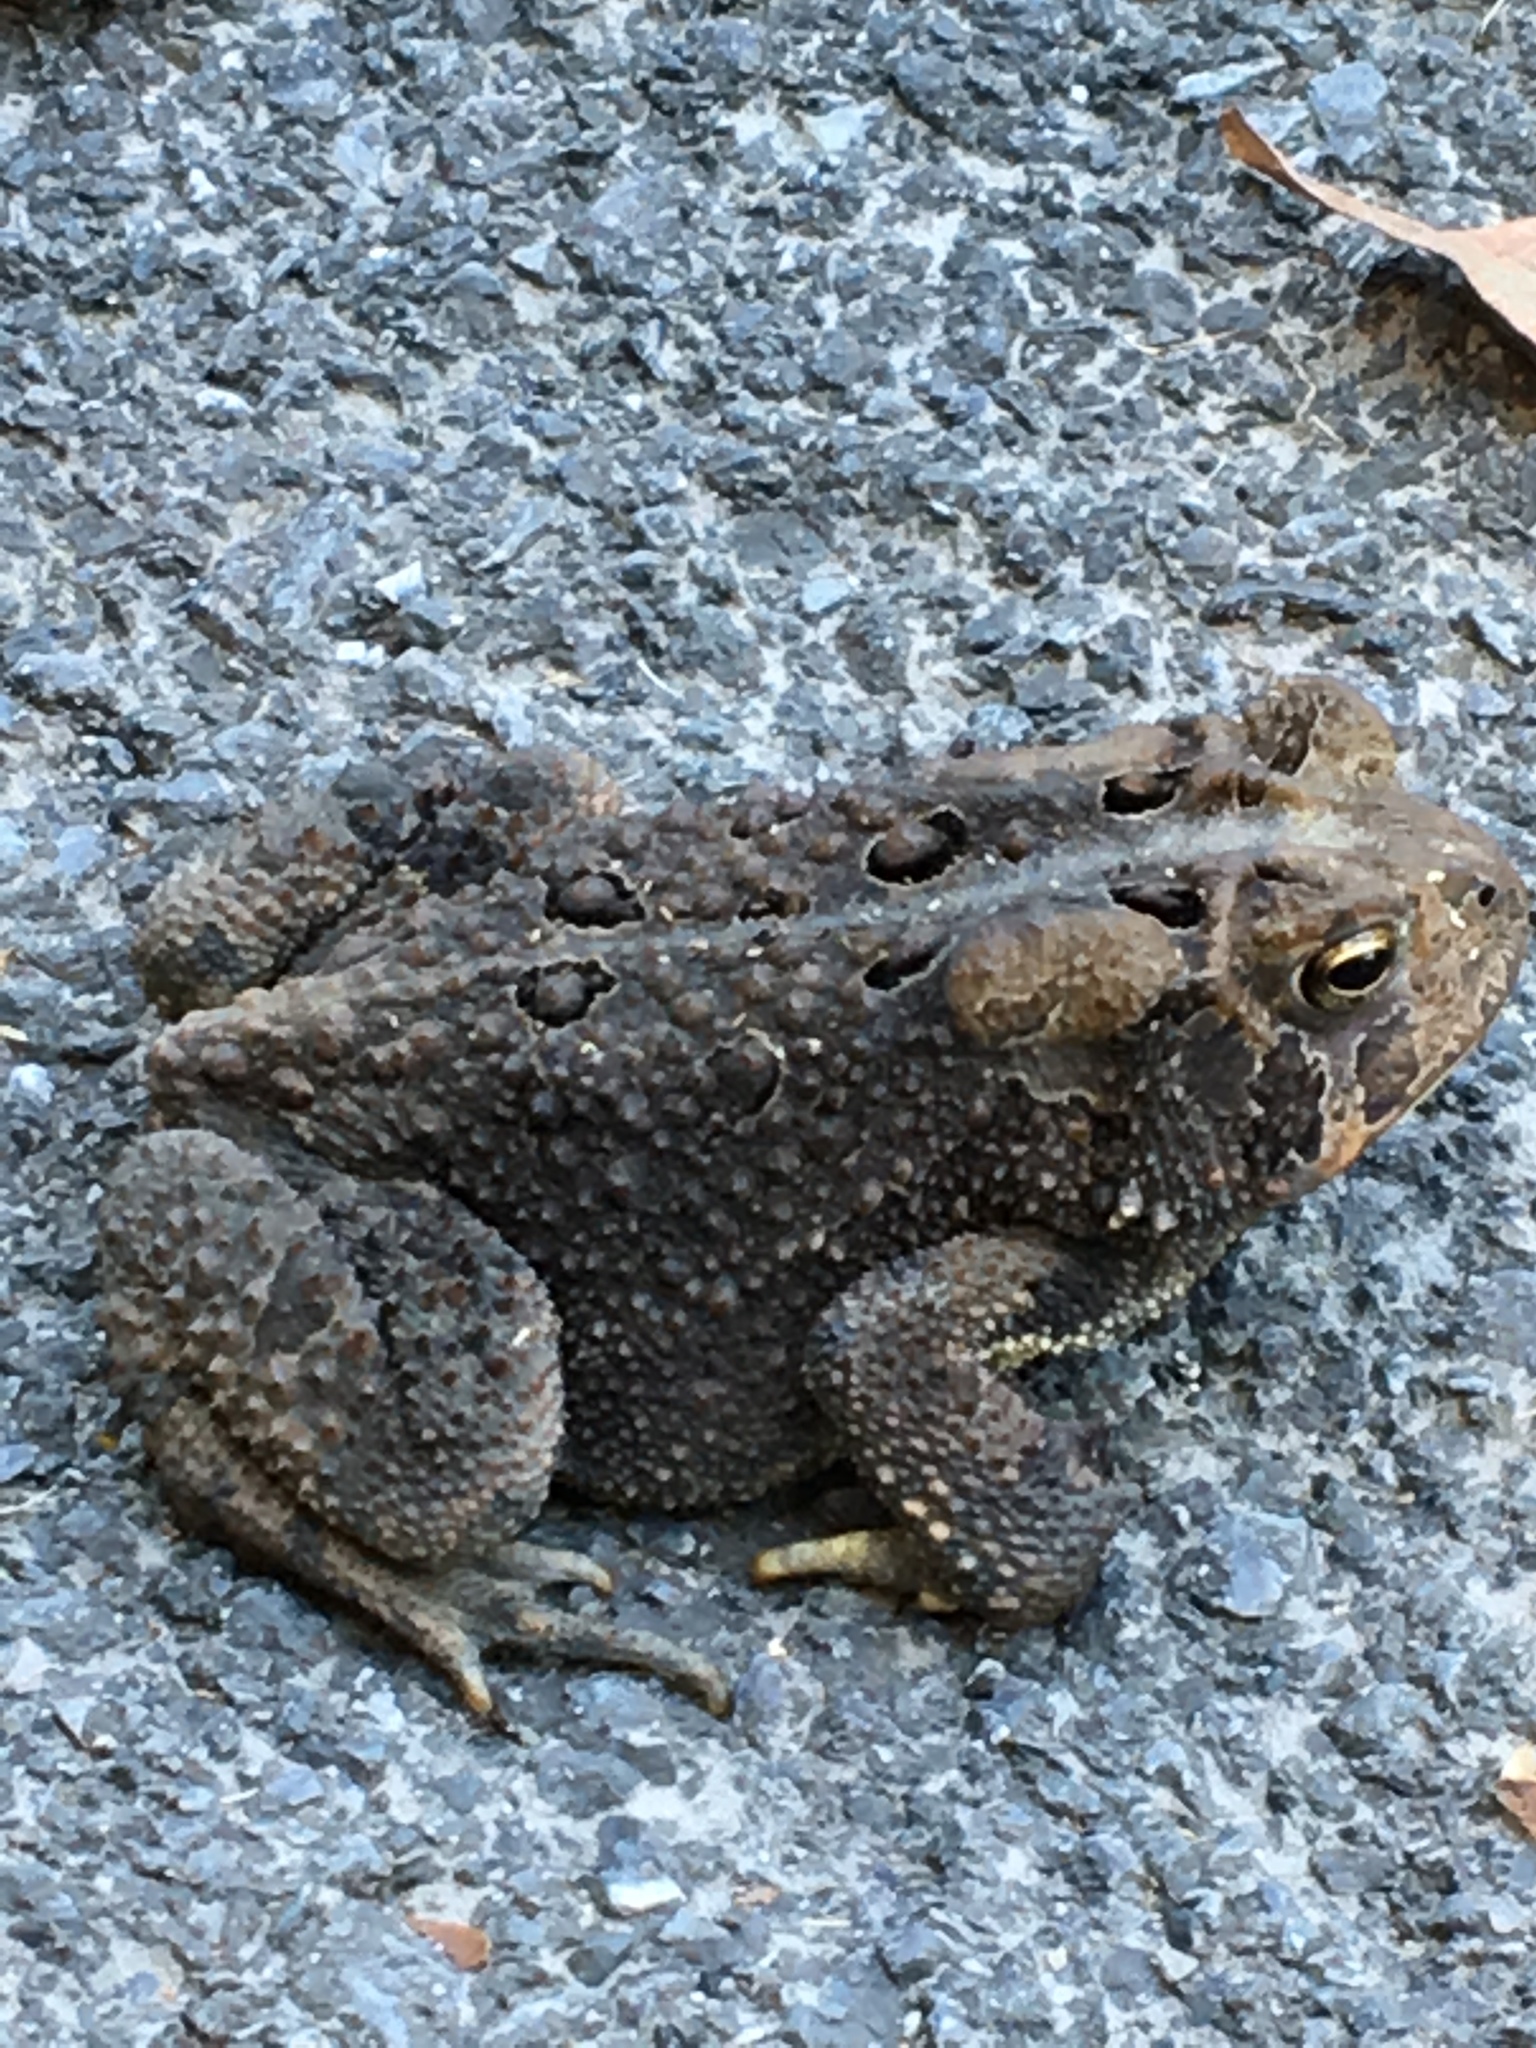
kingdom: Animalia
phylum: Chordata
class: Amphibia
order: Anura
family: Bufonidae
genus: Anaxyrus
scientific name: Anaxyrus americanus
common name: American toad
